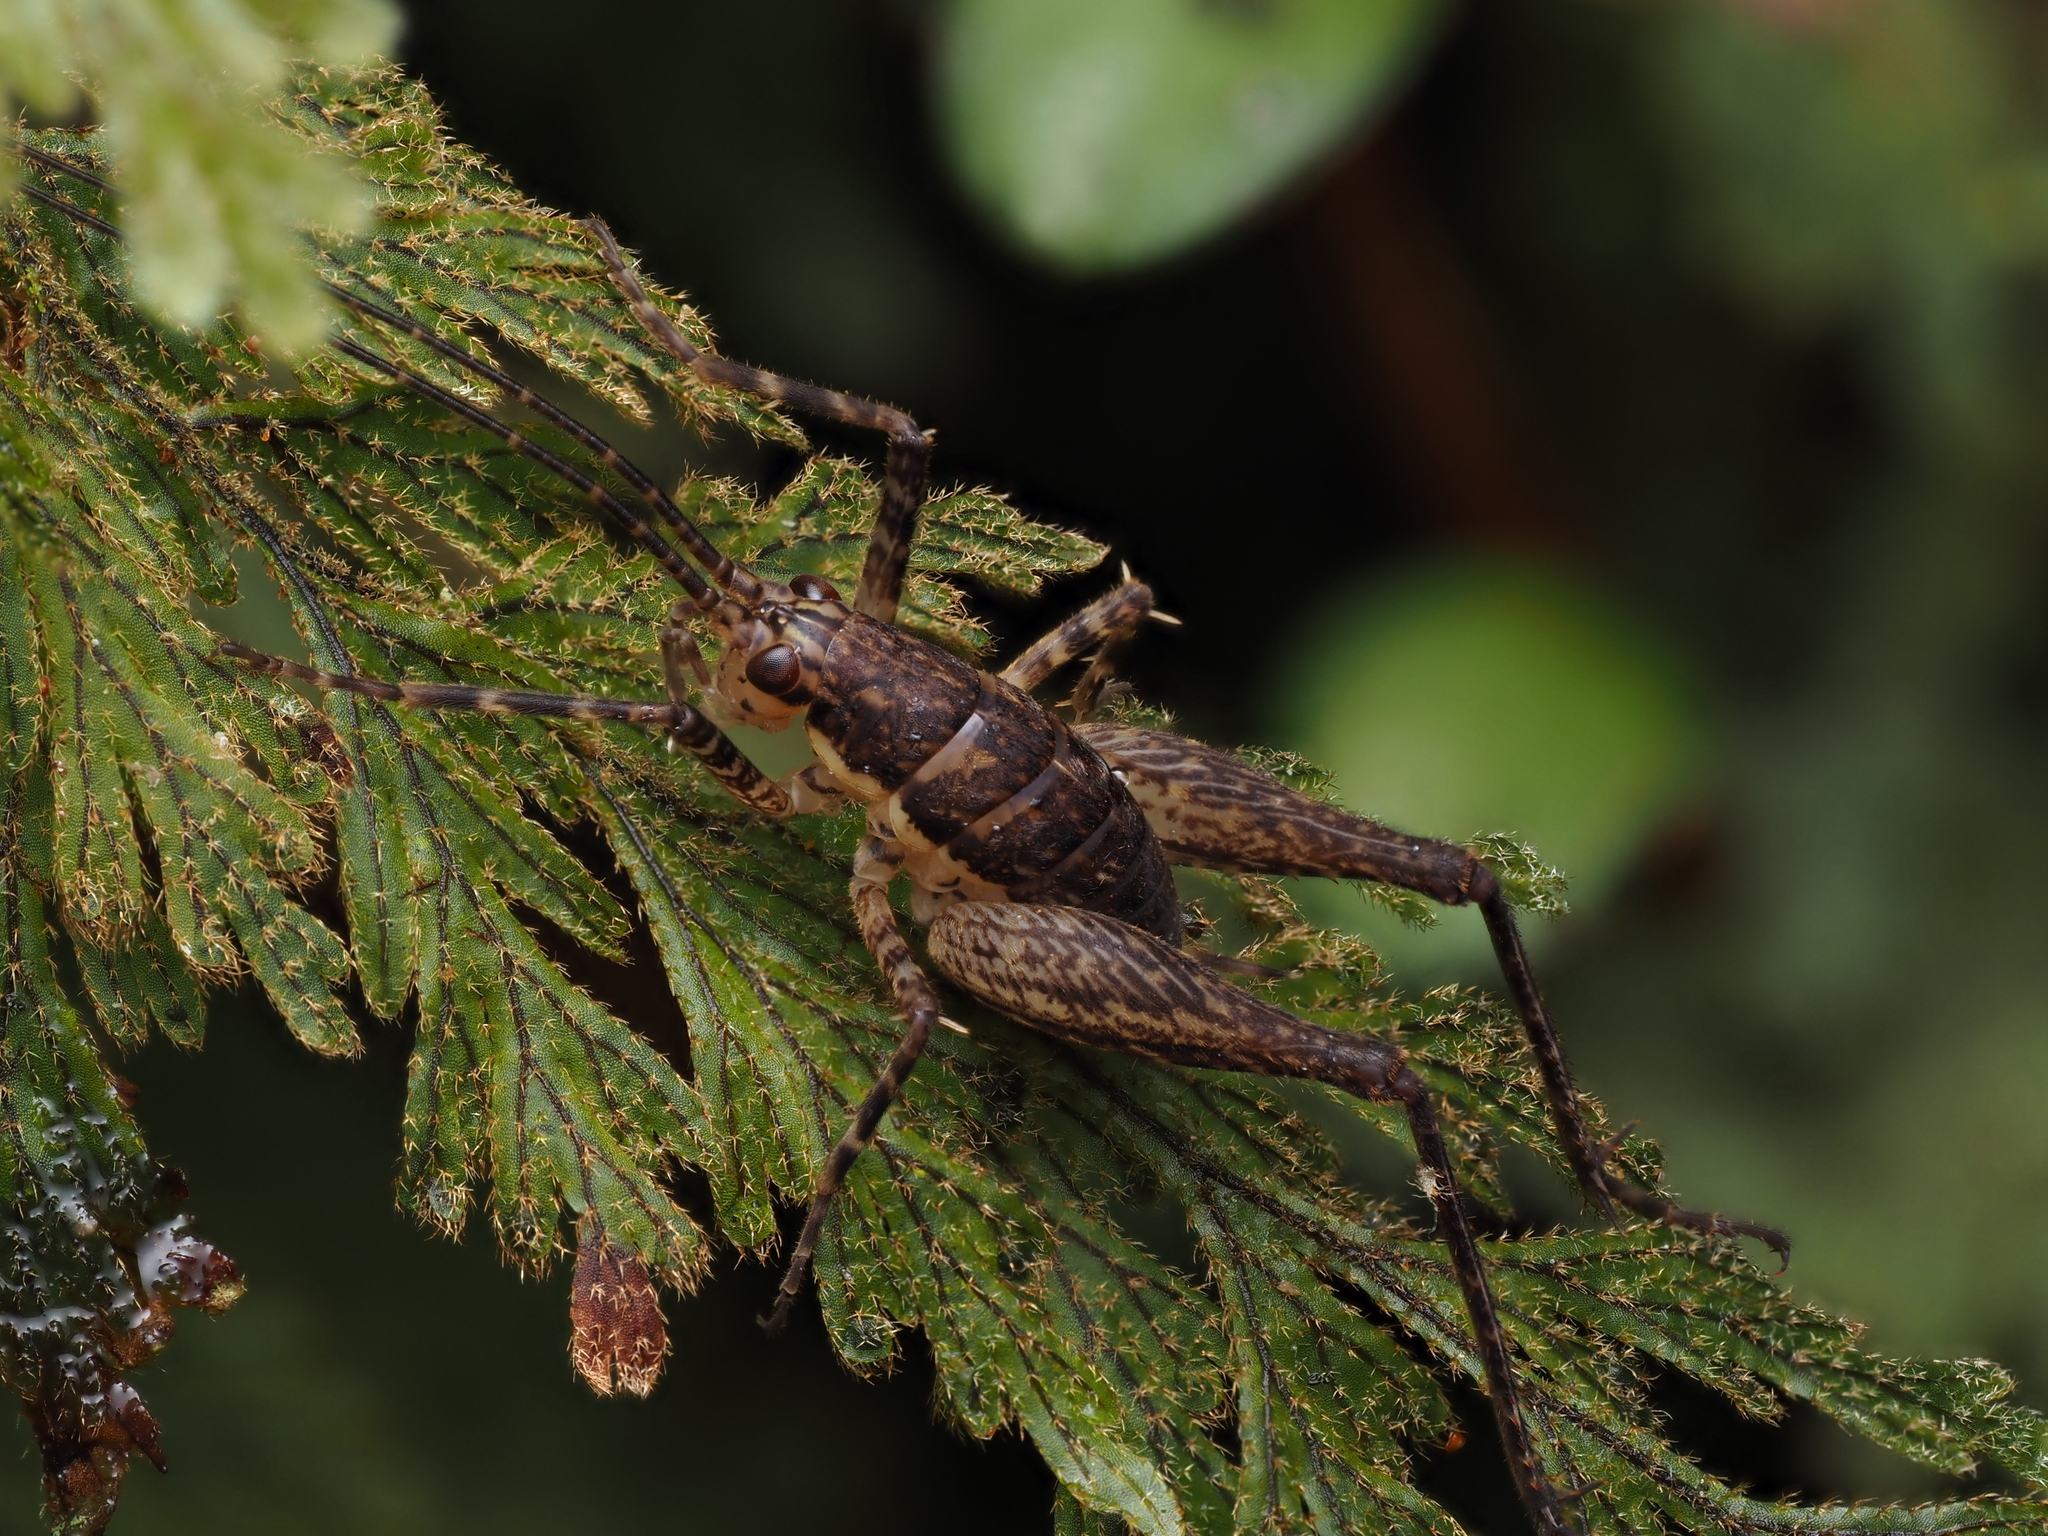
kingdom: Plantae
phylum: Tracheophyta
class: Polypodiopsida
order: Hymenophyllales
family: Hymenophyllaceae
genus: Hymenophyllum
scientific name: Hymenophyllum frankliniae
